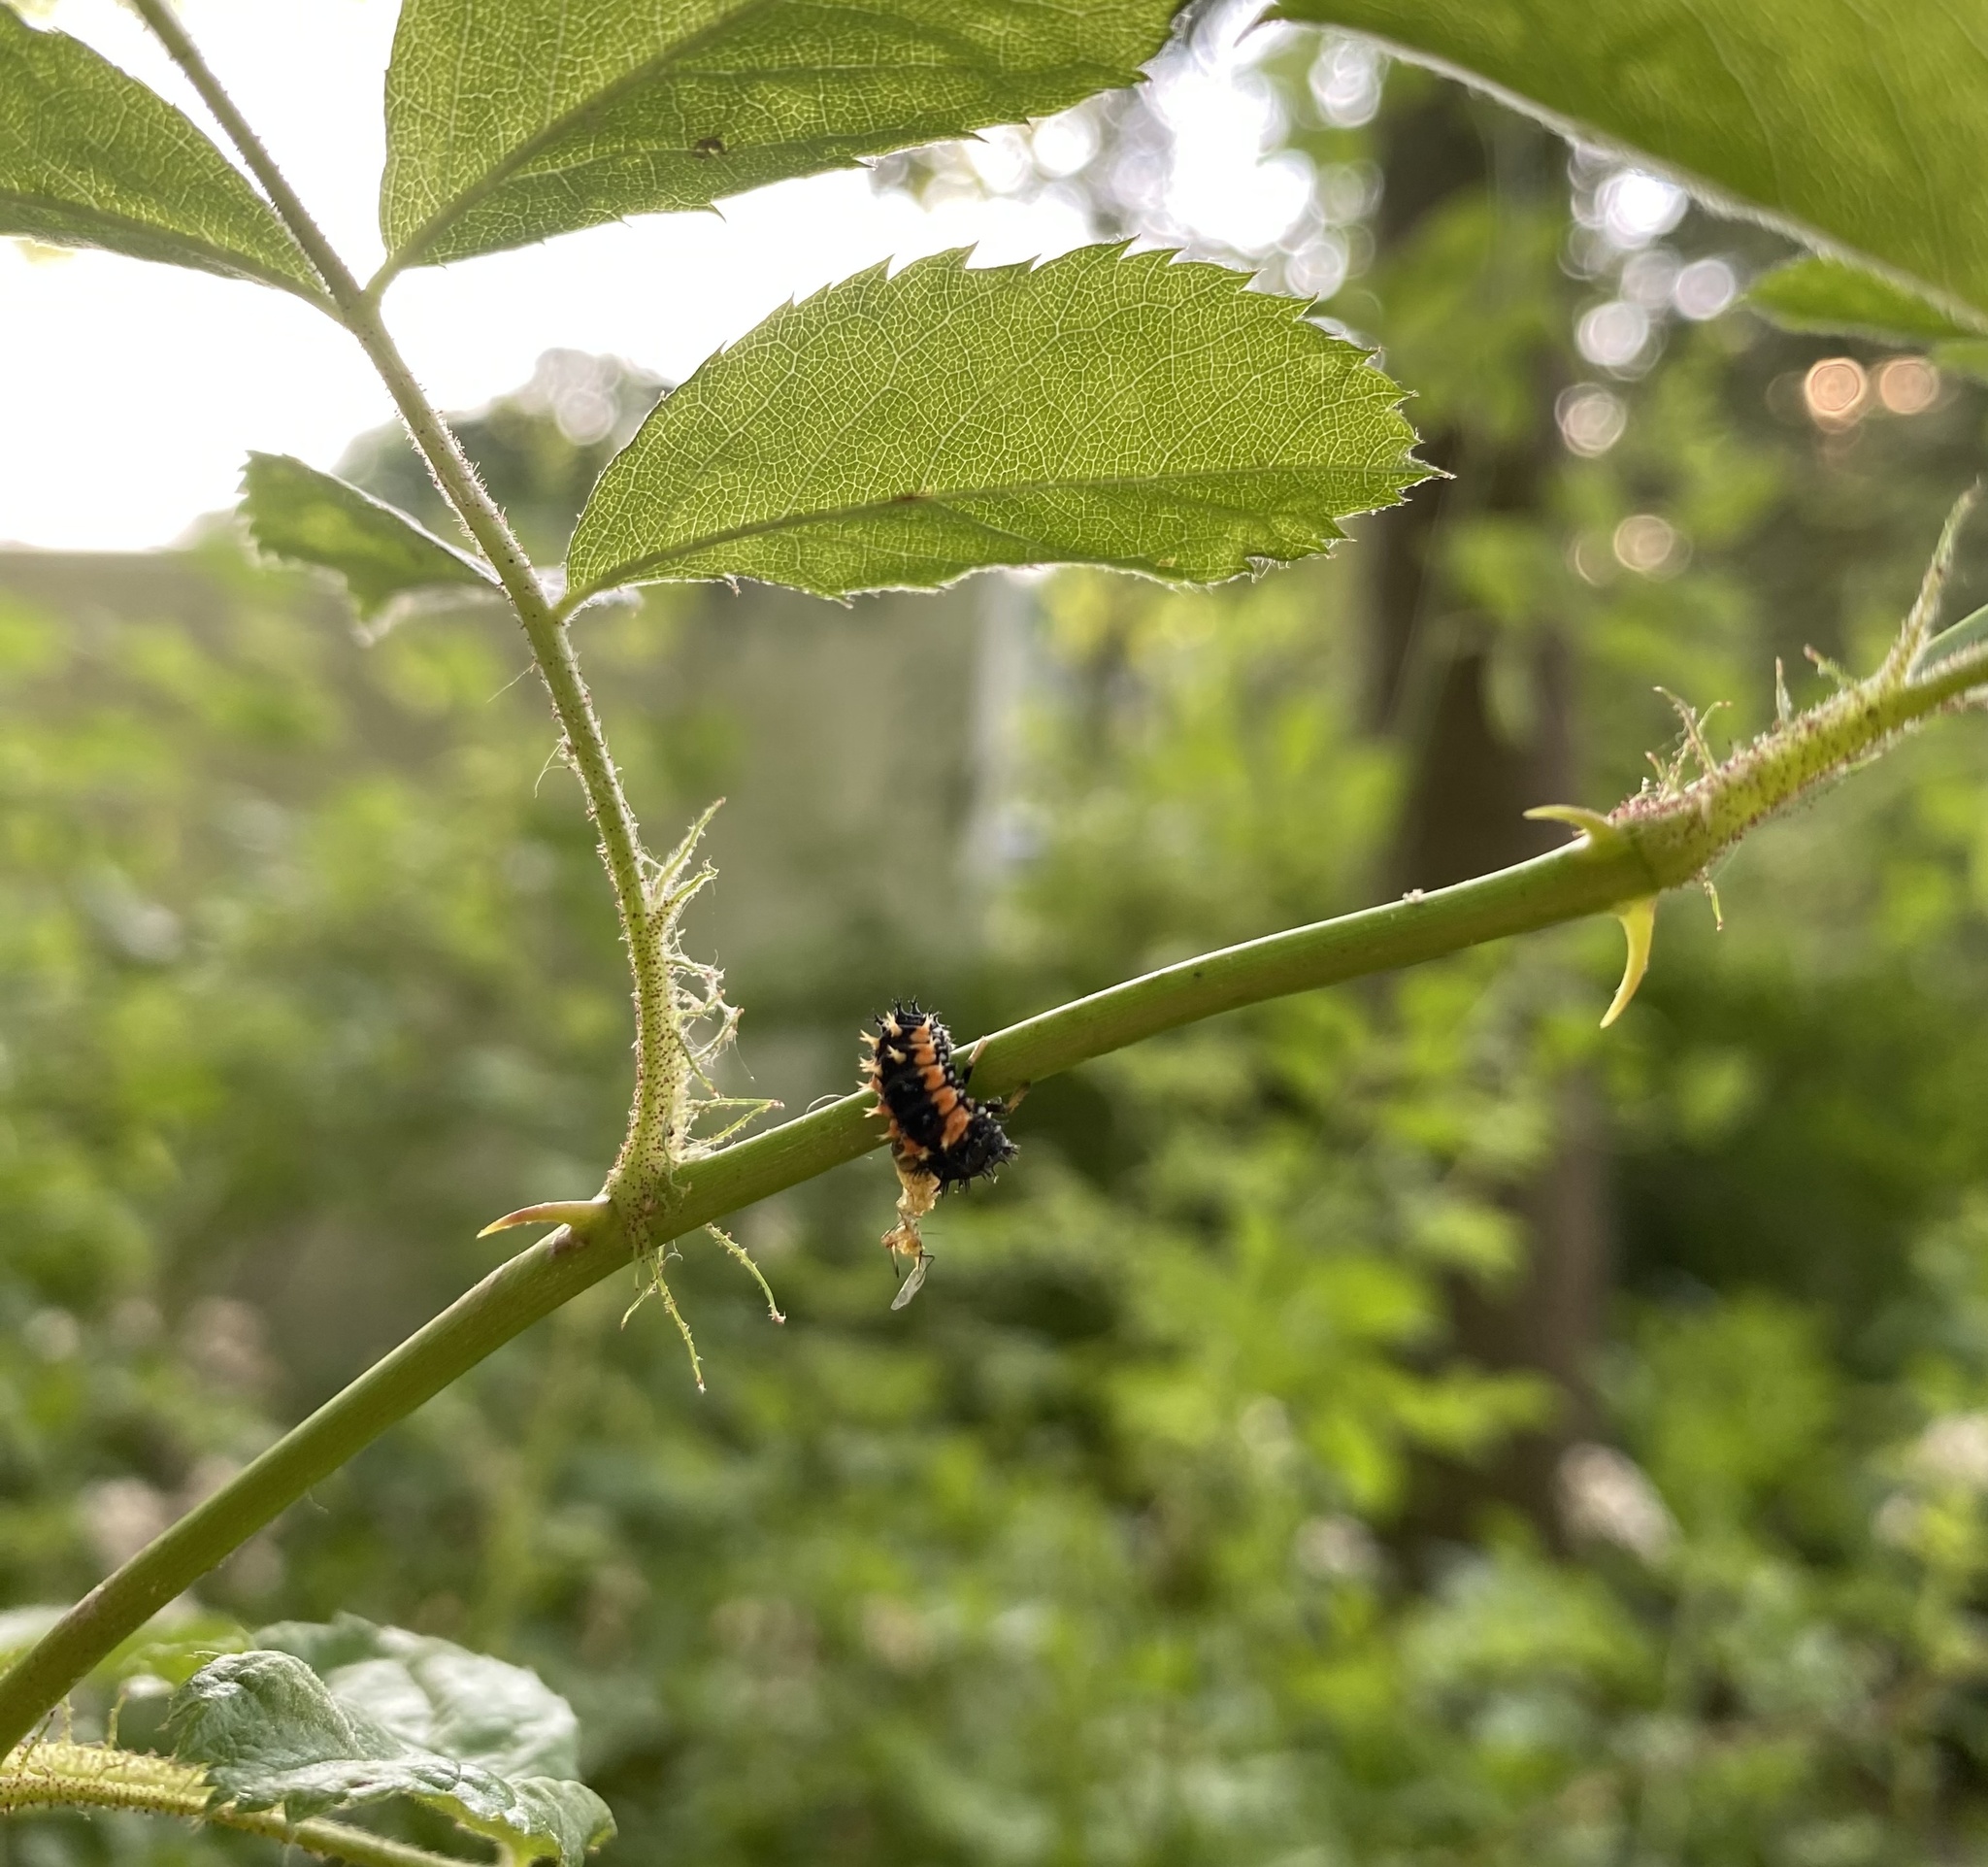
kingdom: Animalia
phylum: Arthropoda
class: Insecta
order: Coleoptera
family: Coccinellidae
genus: Harmonia
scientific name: Harmonia axyridis
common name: Harlequin ladybird
